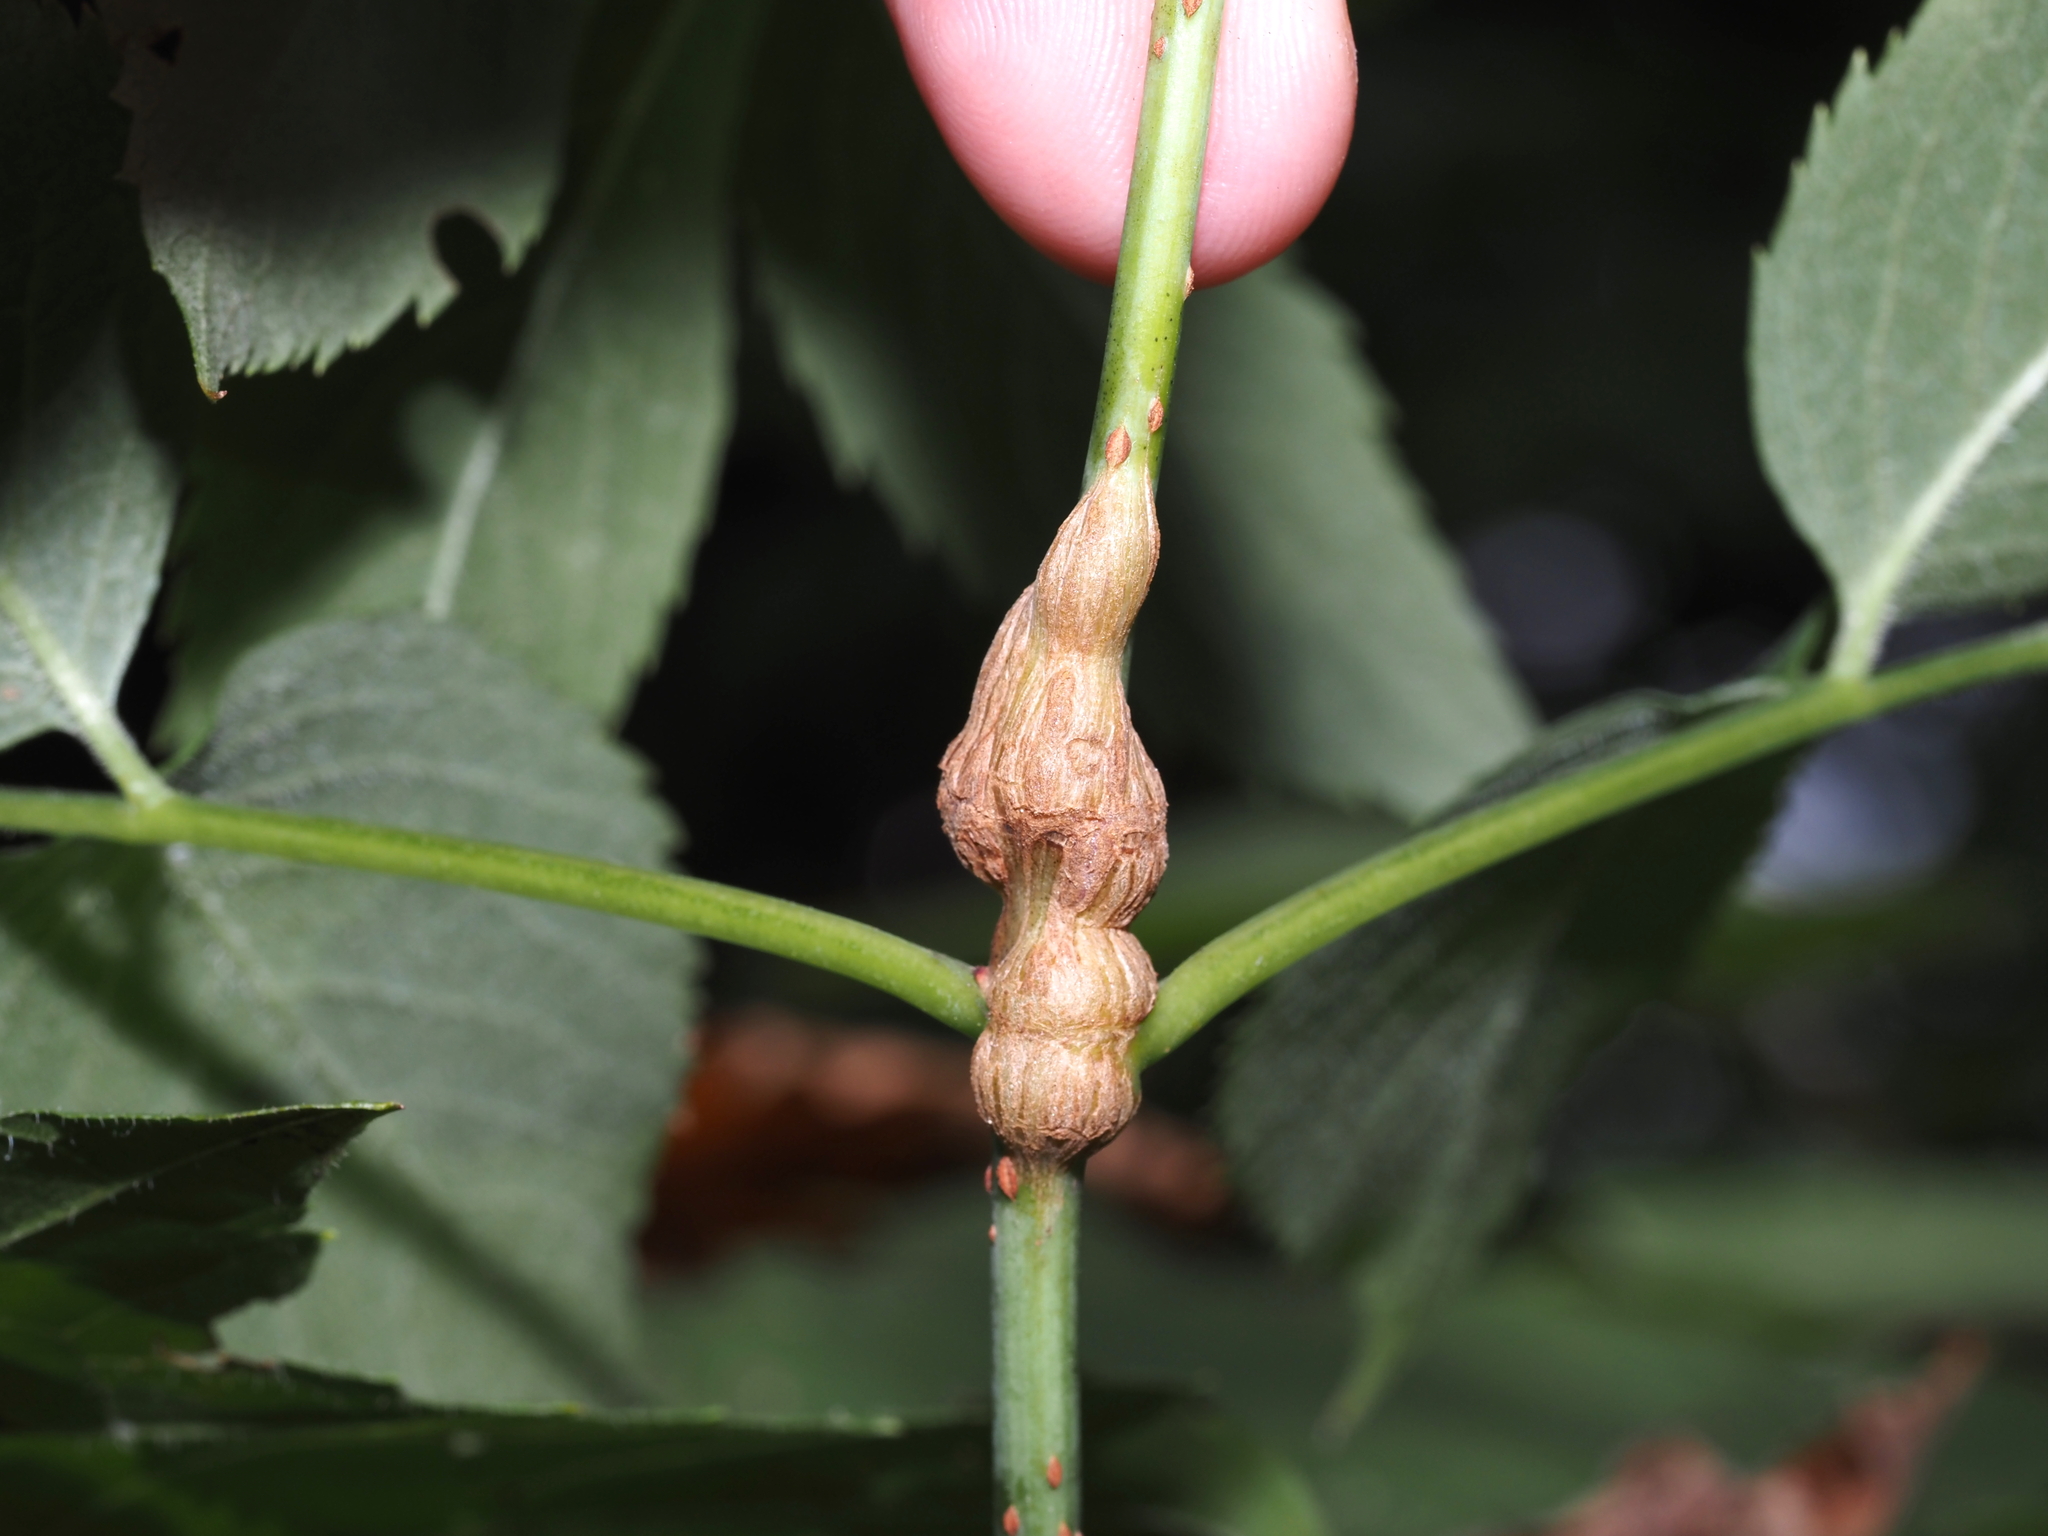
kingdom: Animalia
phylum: Arthropoda
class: Insecta
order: Diptera
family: Cecidomyiidae
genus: Neolasioptera
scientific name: Neolasioptera pierrei
